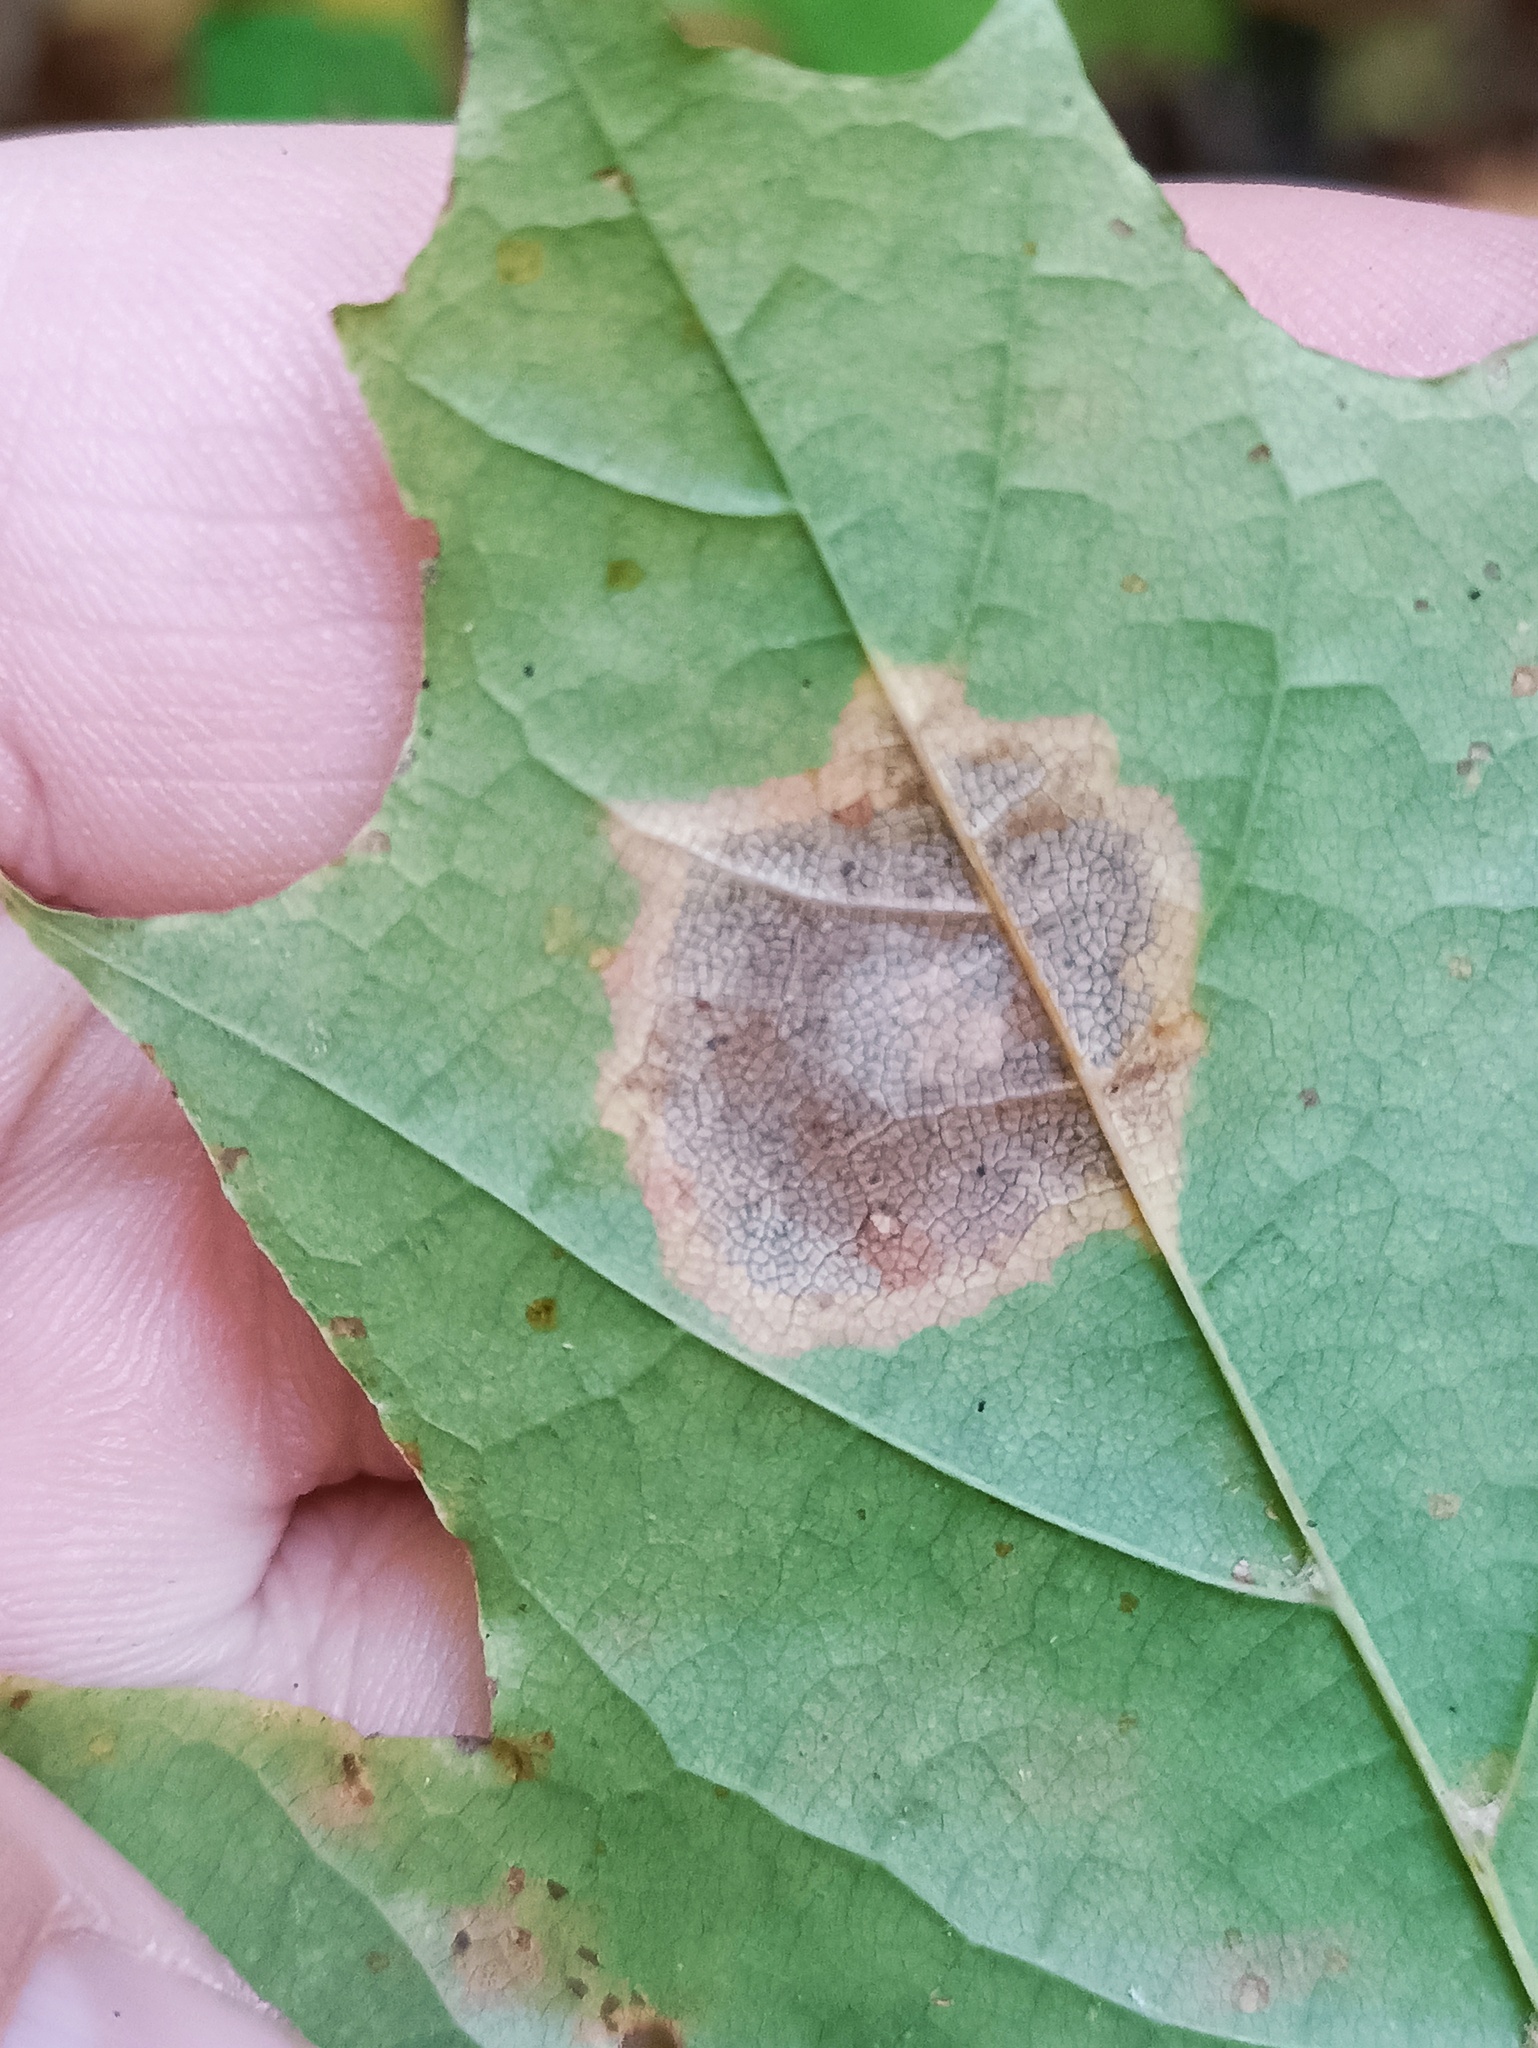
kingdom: Fungi
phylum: Ascomycota
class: Leotiomycetes
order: Rhytismatales
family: Rhytismataceae
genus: Rhytisma
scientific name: Rhytisma acerinum
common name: European tar spot
